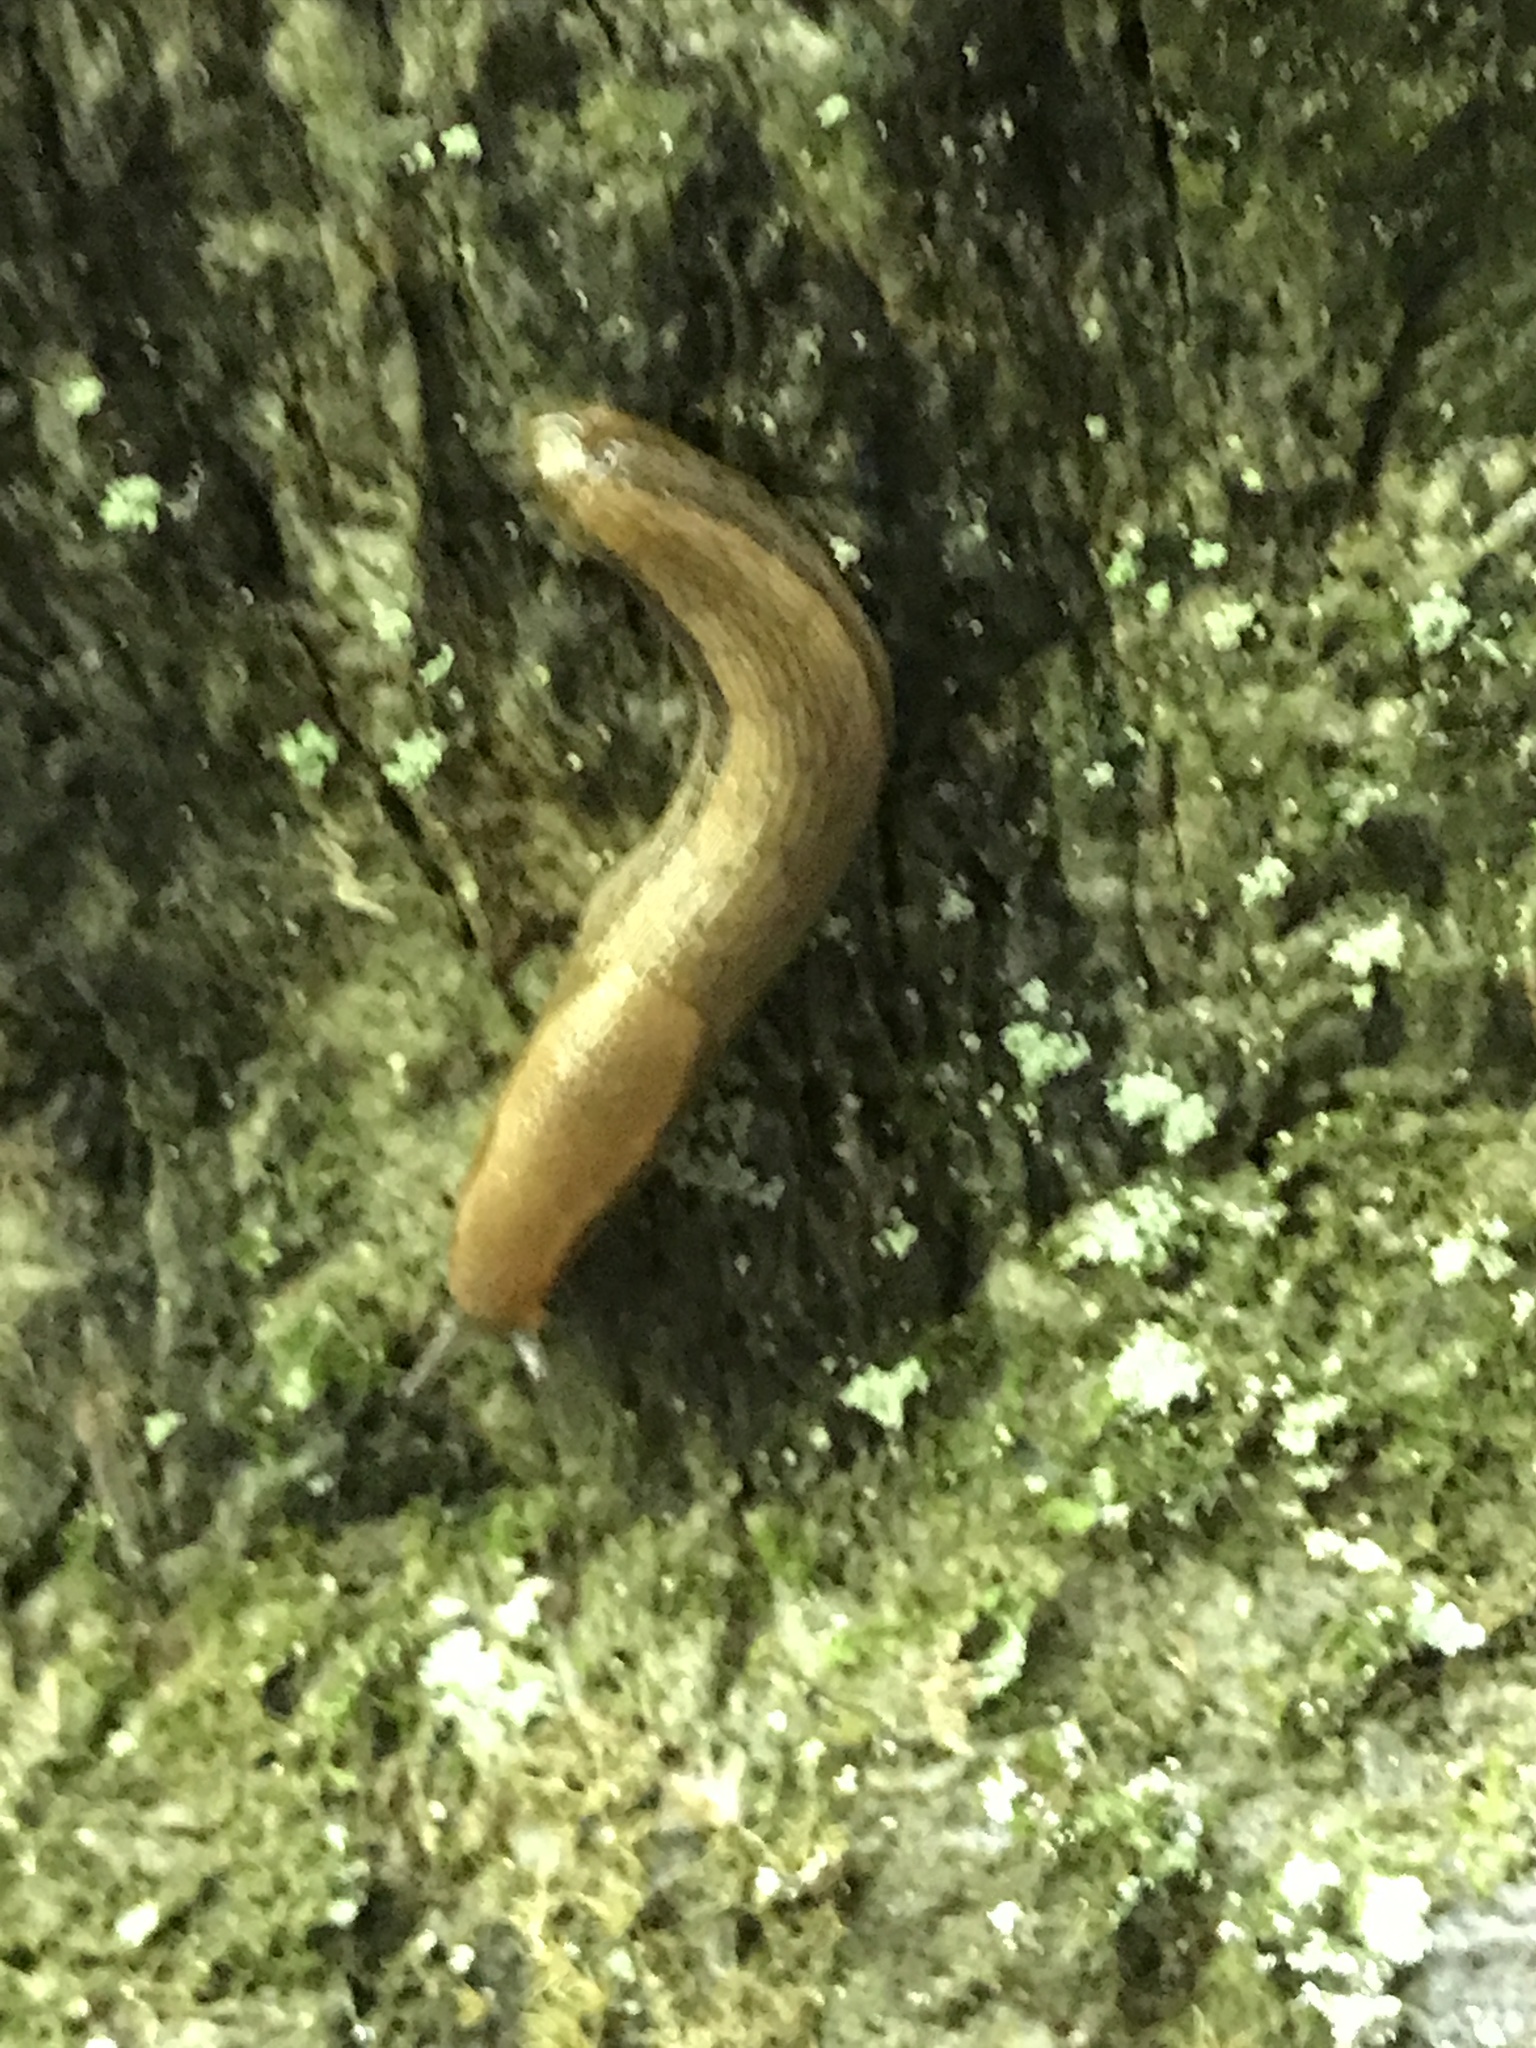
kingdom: Animalia
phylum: Mollusca
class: Gastropoda
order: Stylommatophora
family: Arionidae
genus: Arion
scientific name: Arion
